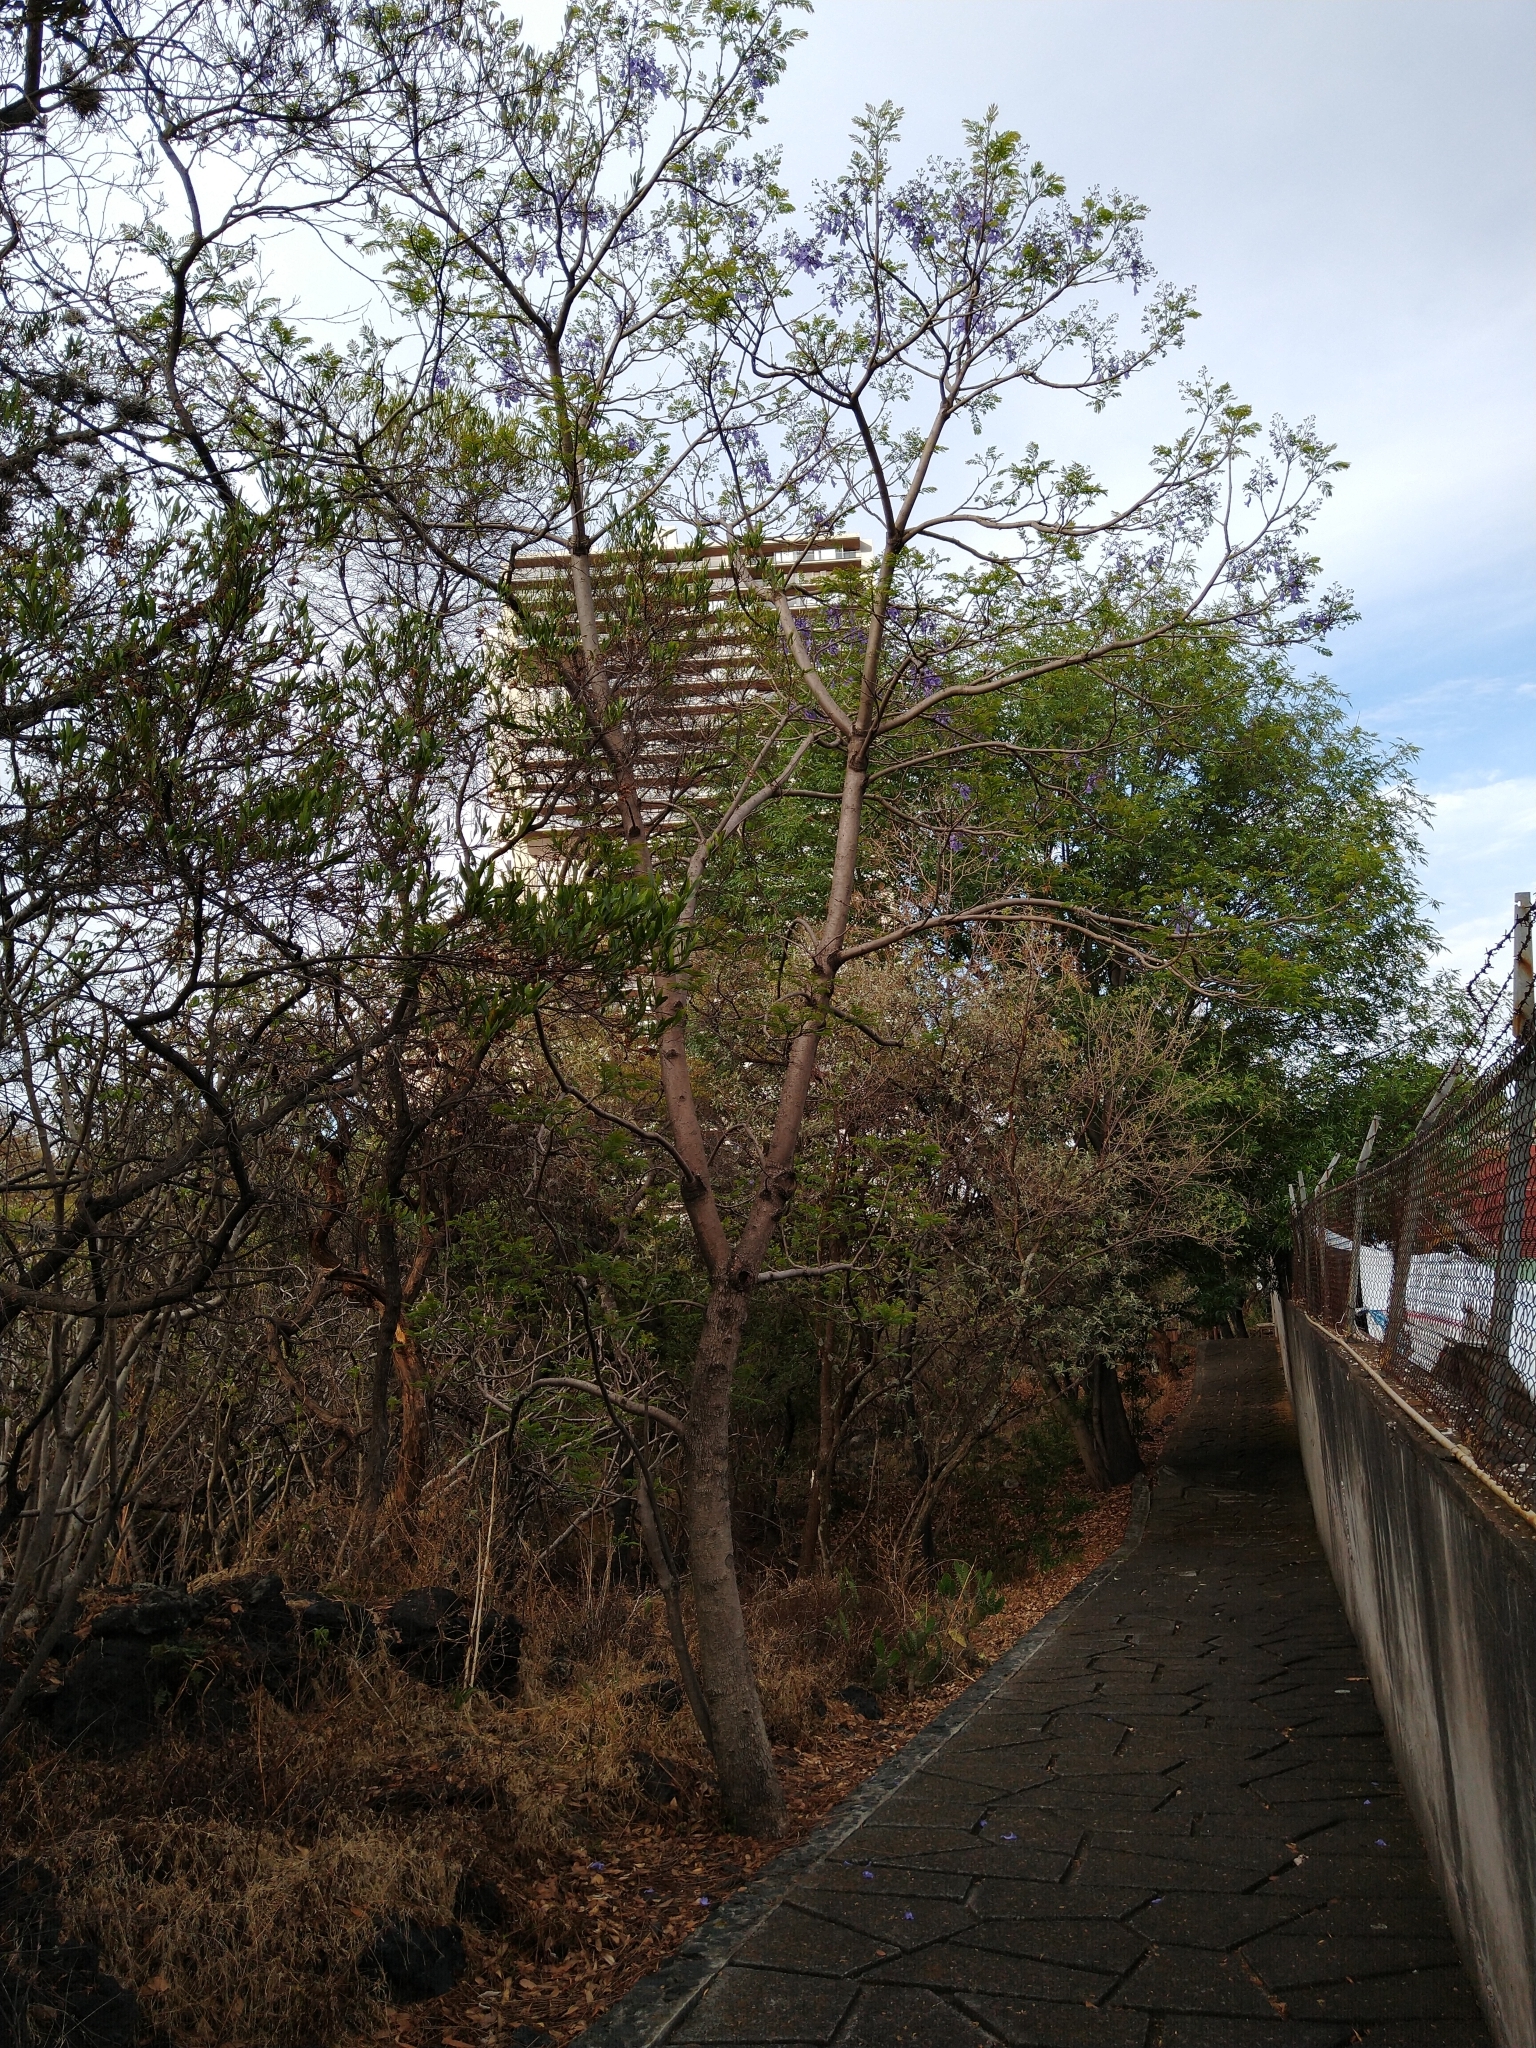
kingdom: Plantae
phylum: Tracheophyta
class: Magnoliopsida
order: Lamiales
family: Bignoniaceae
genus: Jacaranda
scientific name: Jacaranda mimosifolia
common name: Black poui
